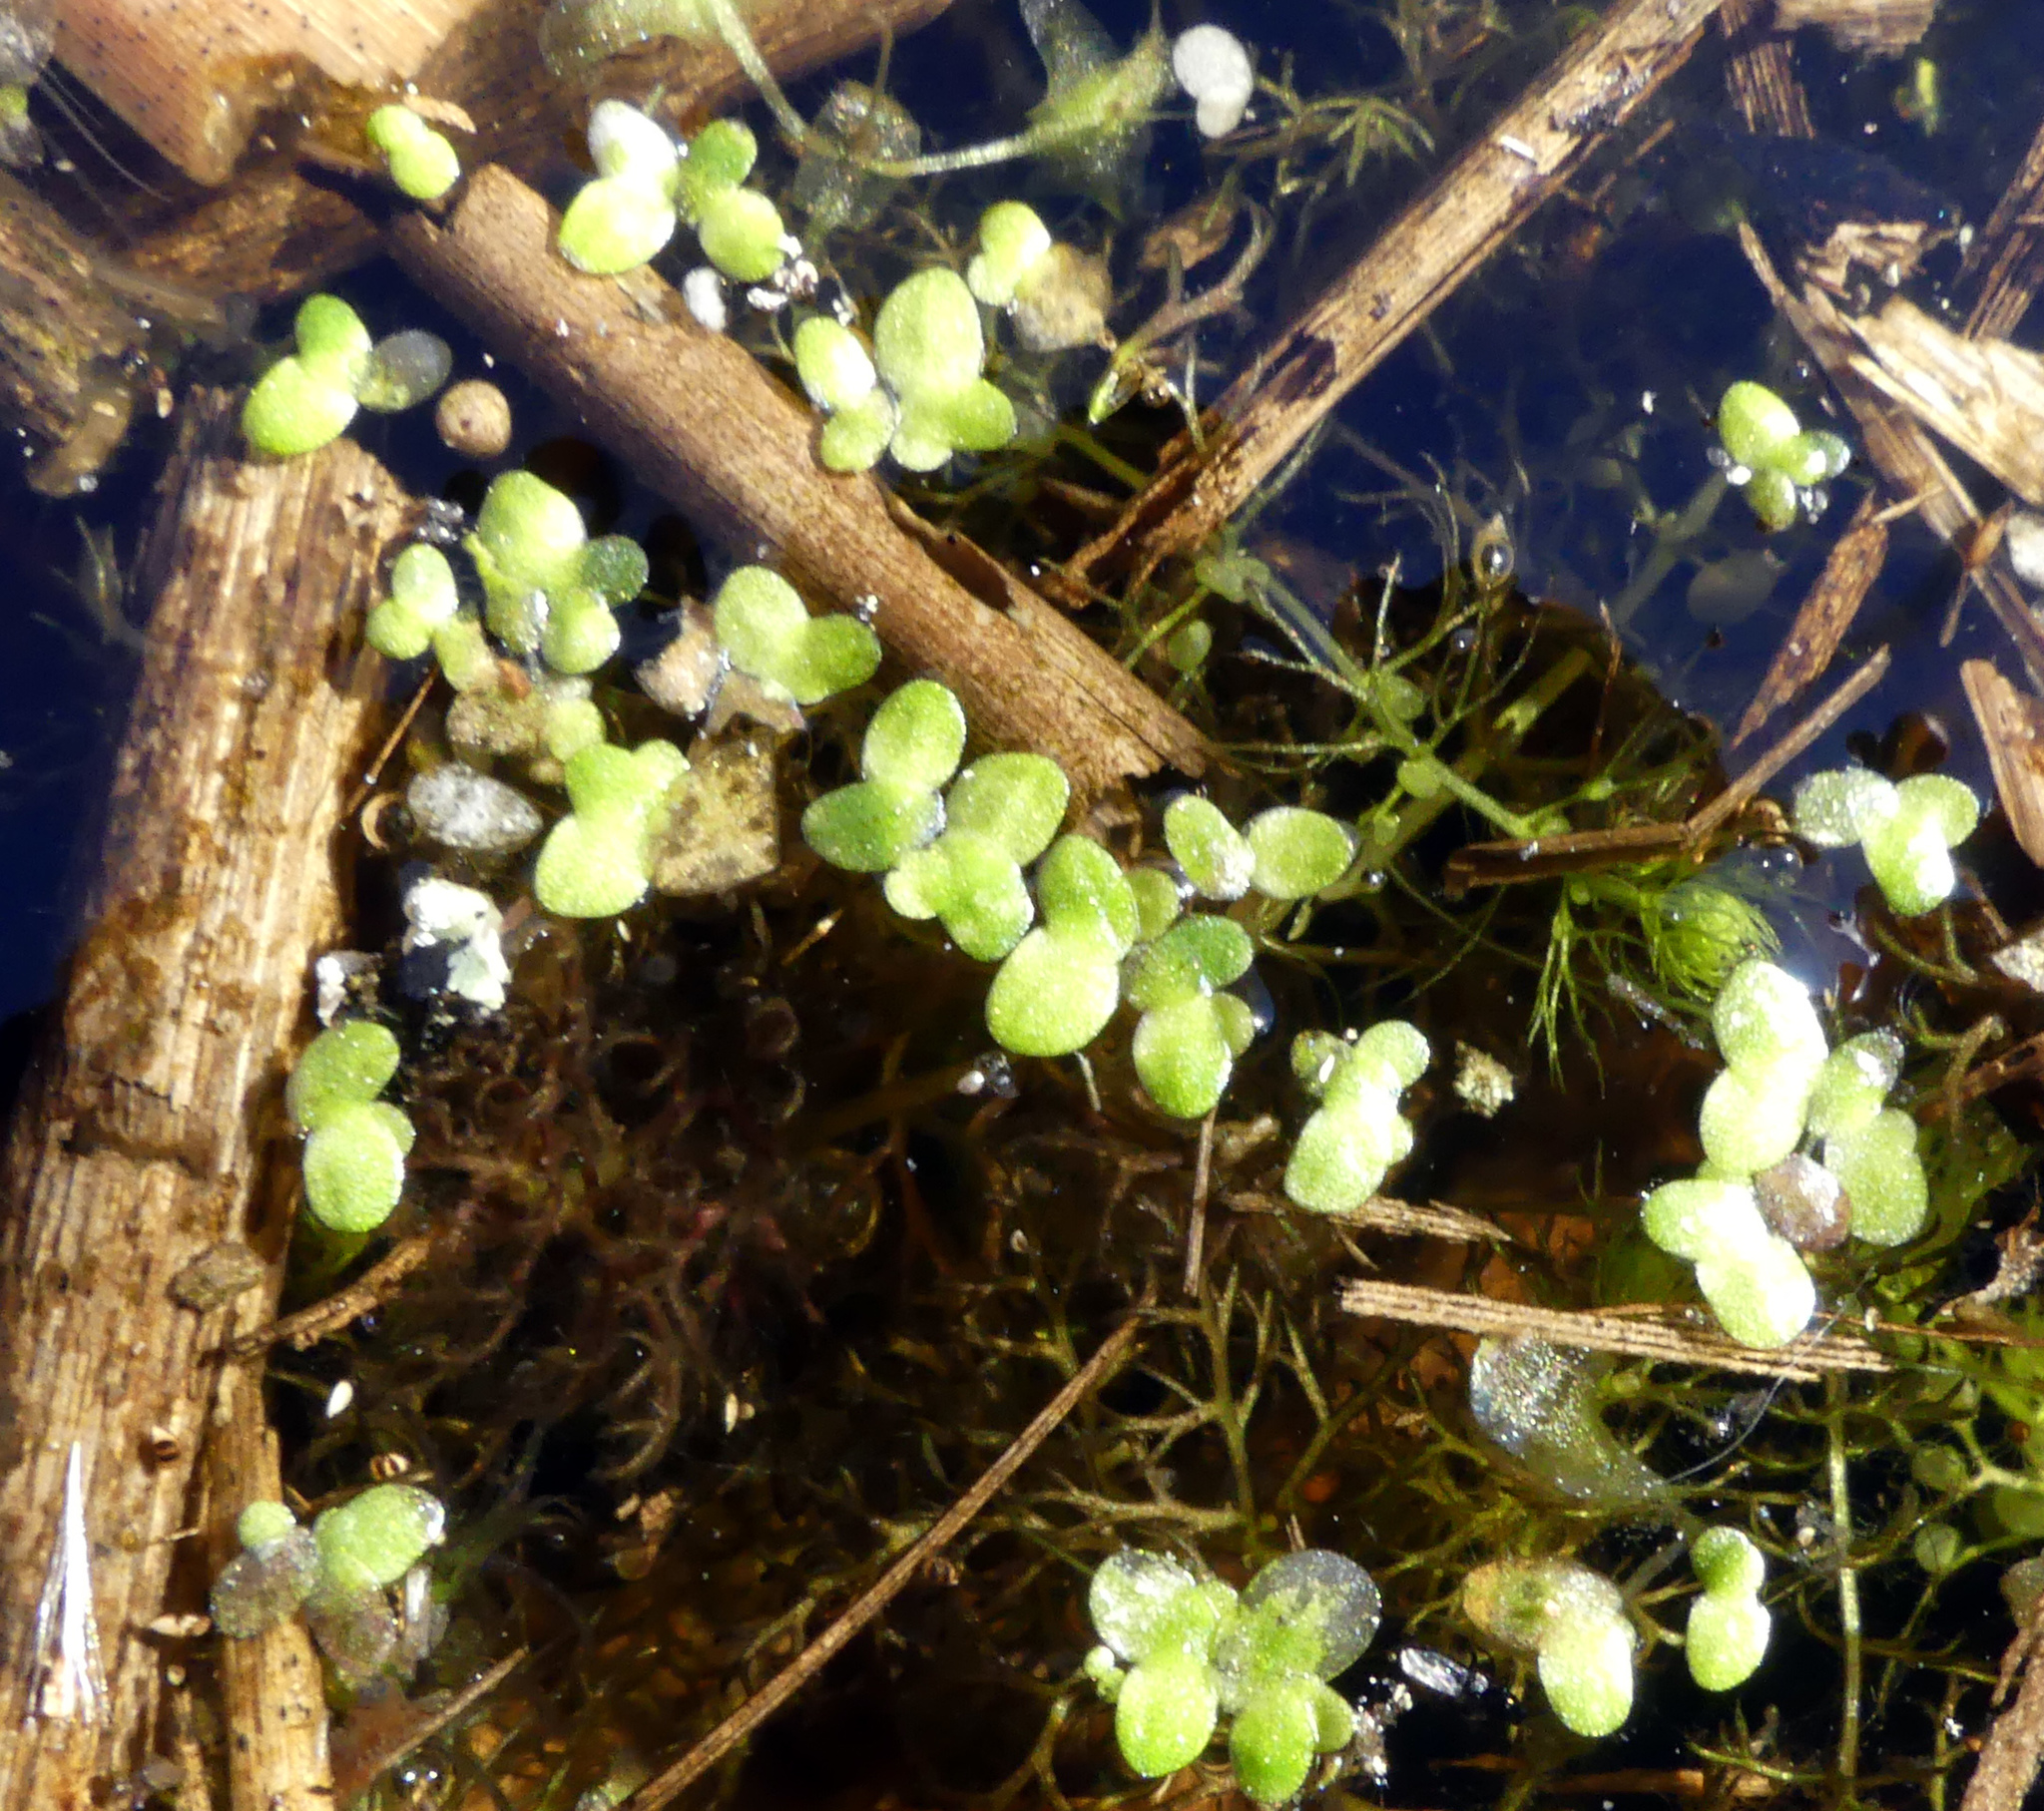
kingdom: Plantae
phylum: Tracheophyta
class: Liliopsida
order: Alismatales
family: Araceae
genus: Lemna
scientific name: Lemna minor
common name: Common duckweed
